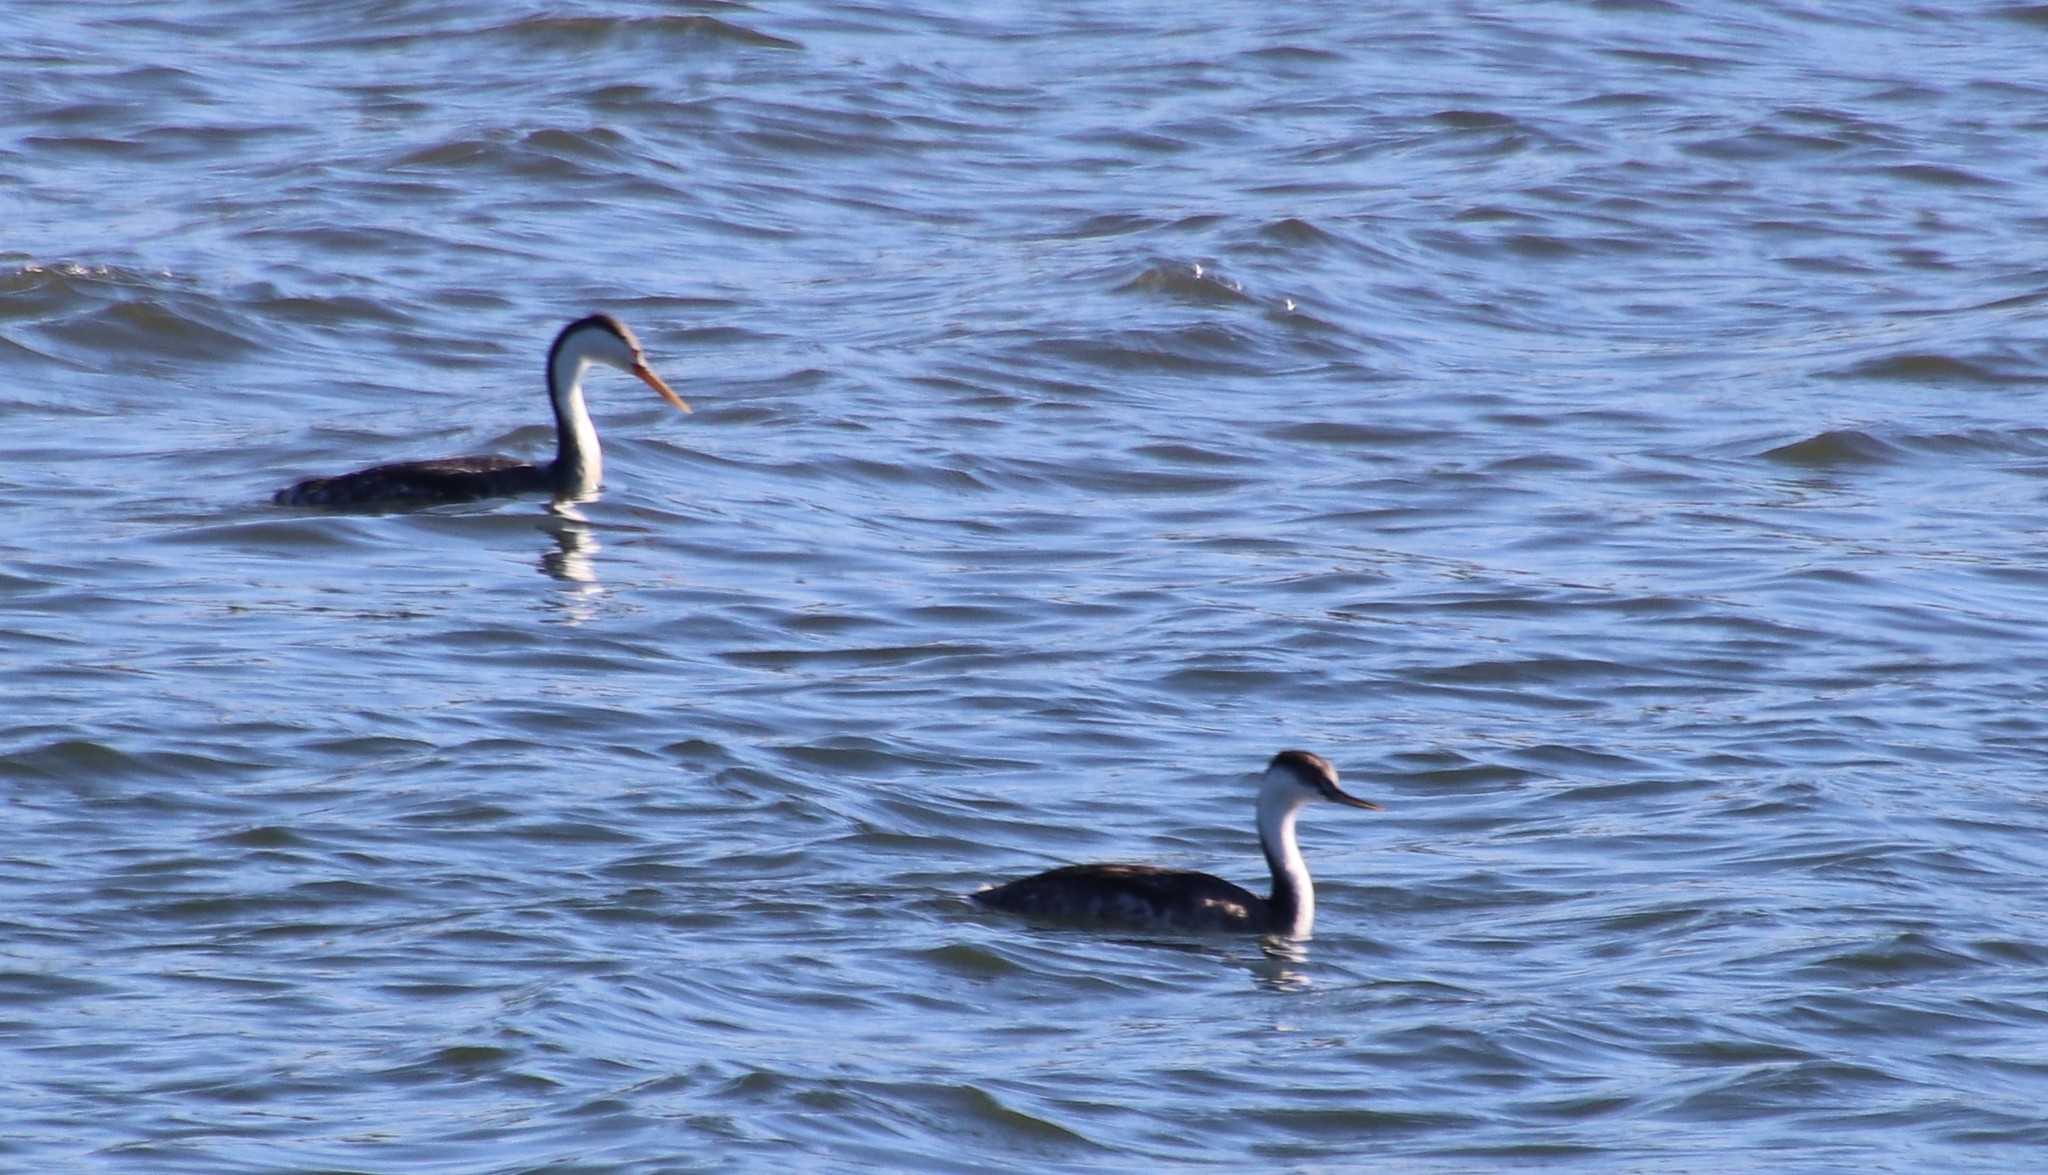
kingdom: Animalia
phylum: Chordata
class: Aves
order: Podicipediformes
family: Podicipedidae
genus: Aechmophorus
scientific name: Aechmophorus clarkii
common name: Clark's grebe
